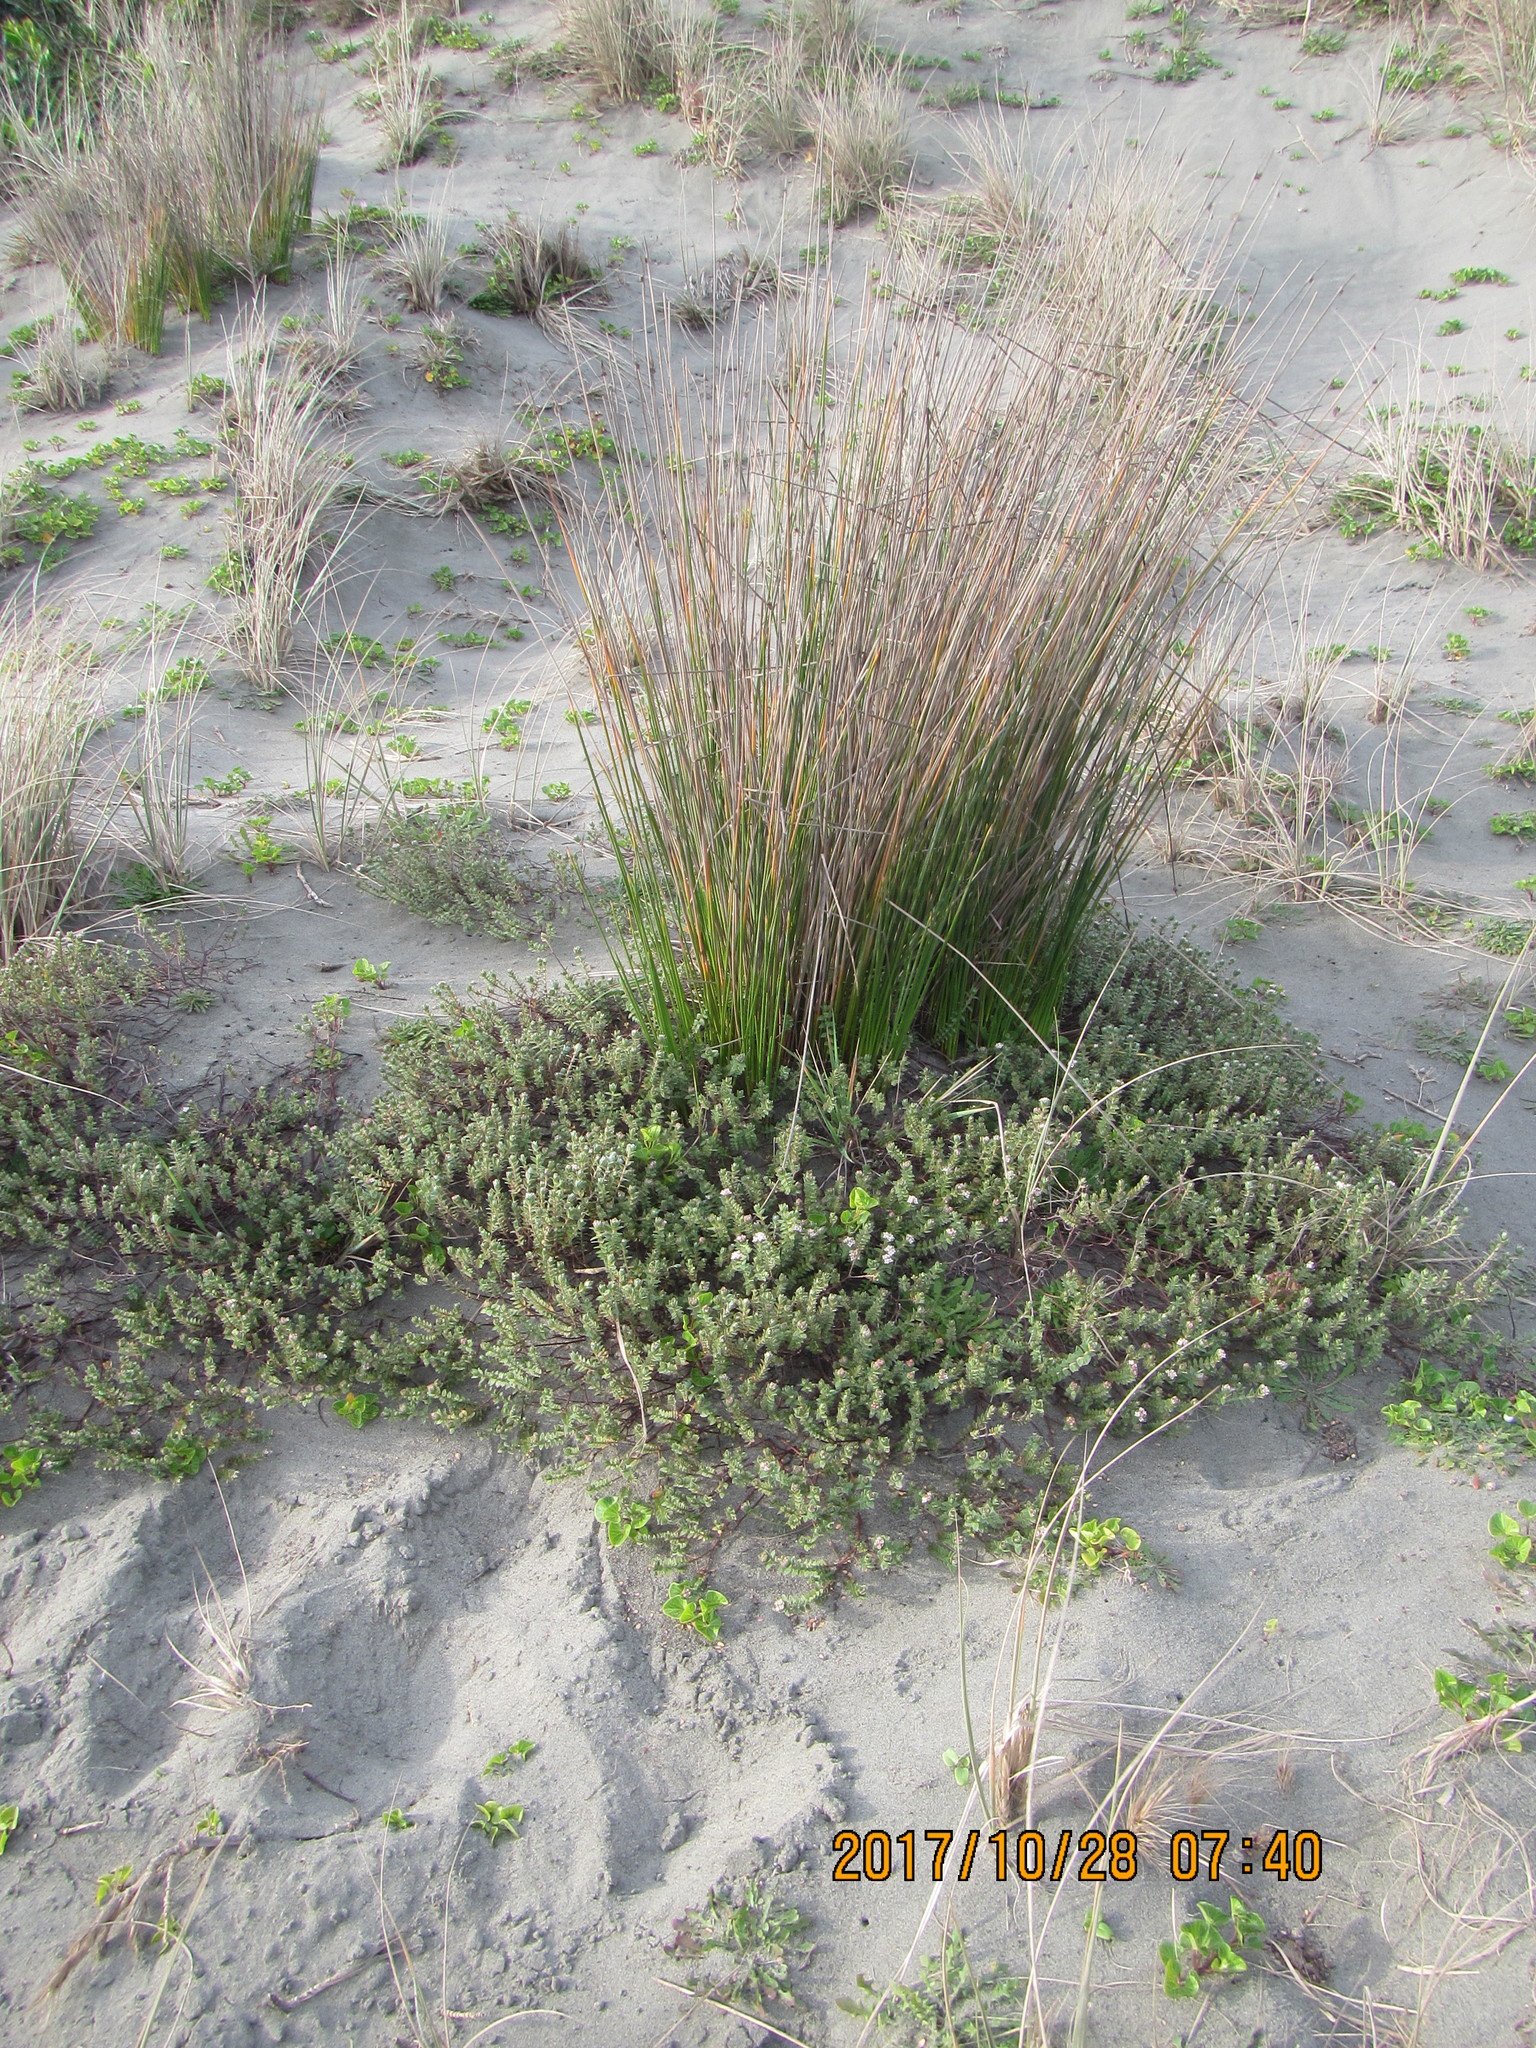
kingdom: Plantae
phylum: Tracheophyta
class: Liliopsida
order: Poales
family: Cyperaceae
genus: Ficinia
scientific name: Ficinia nodosa
